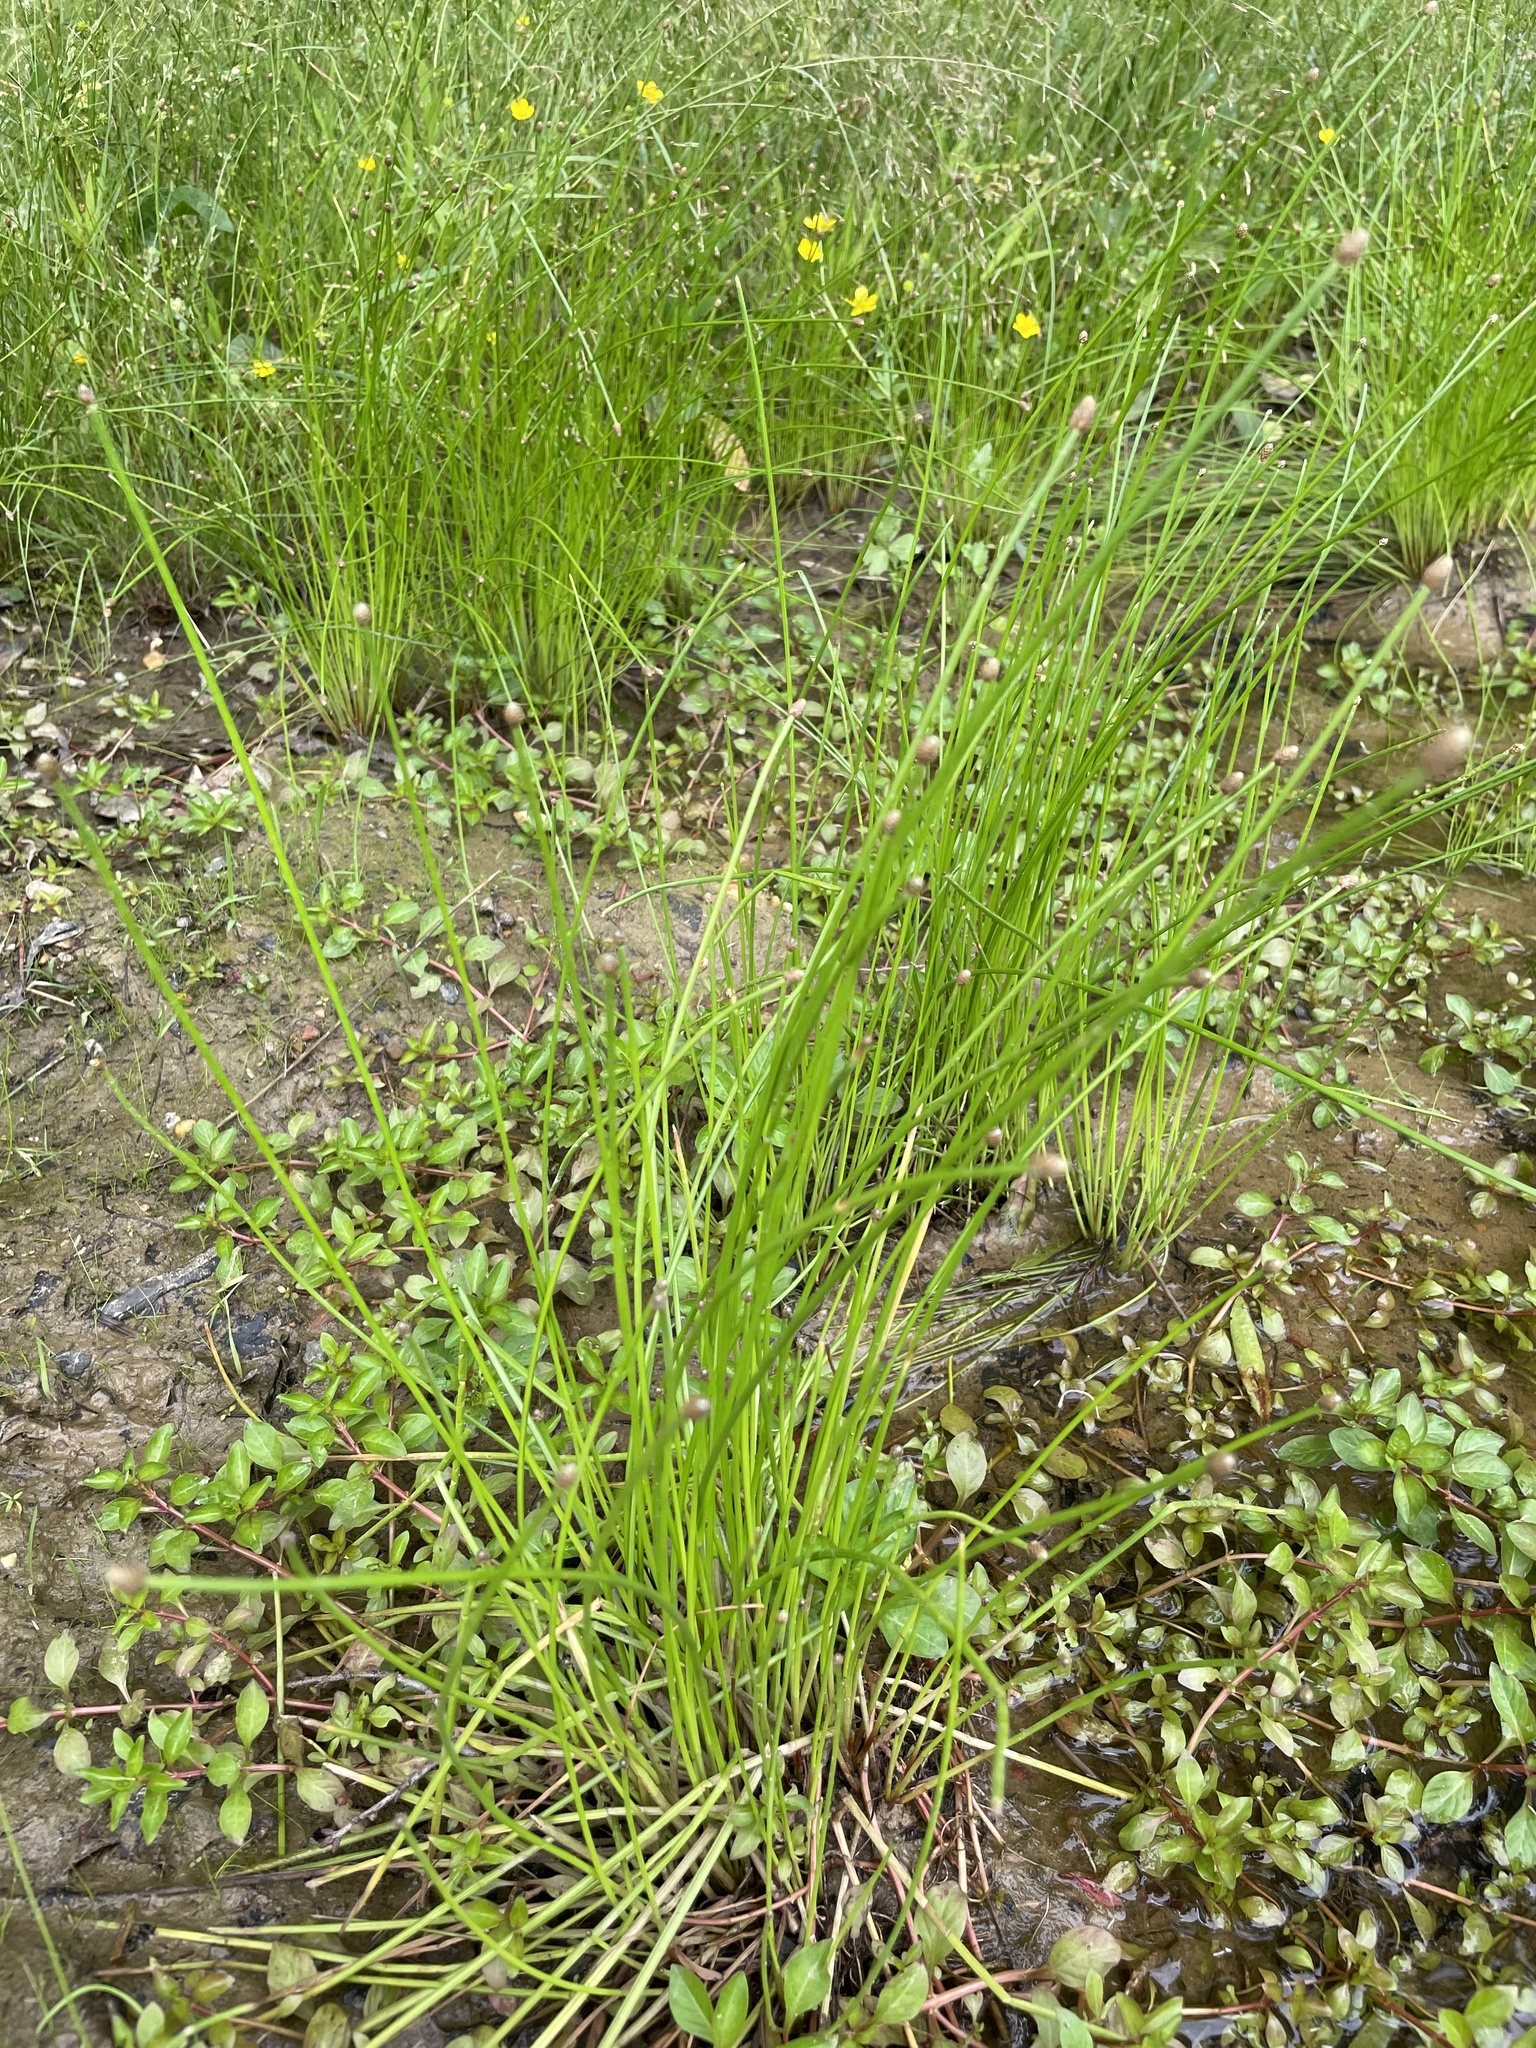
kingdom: Plantae
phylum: Tracheophyta
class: Liliopsida
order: Poales
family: Cyperaceae
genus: Eleocharis
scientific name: Eleocharis obtusa
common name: Blunt spikerush
